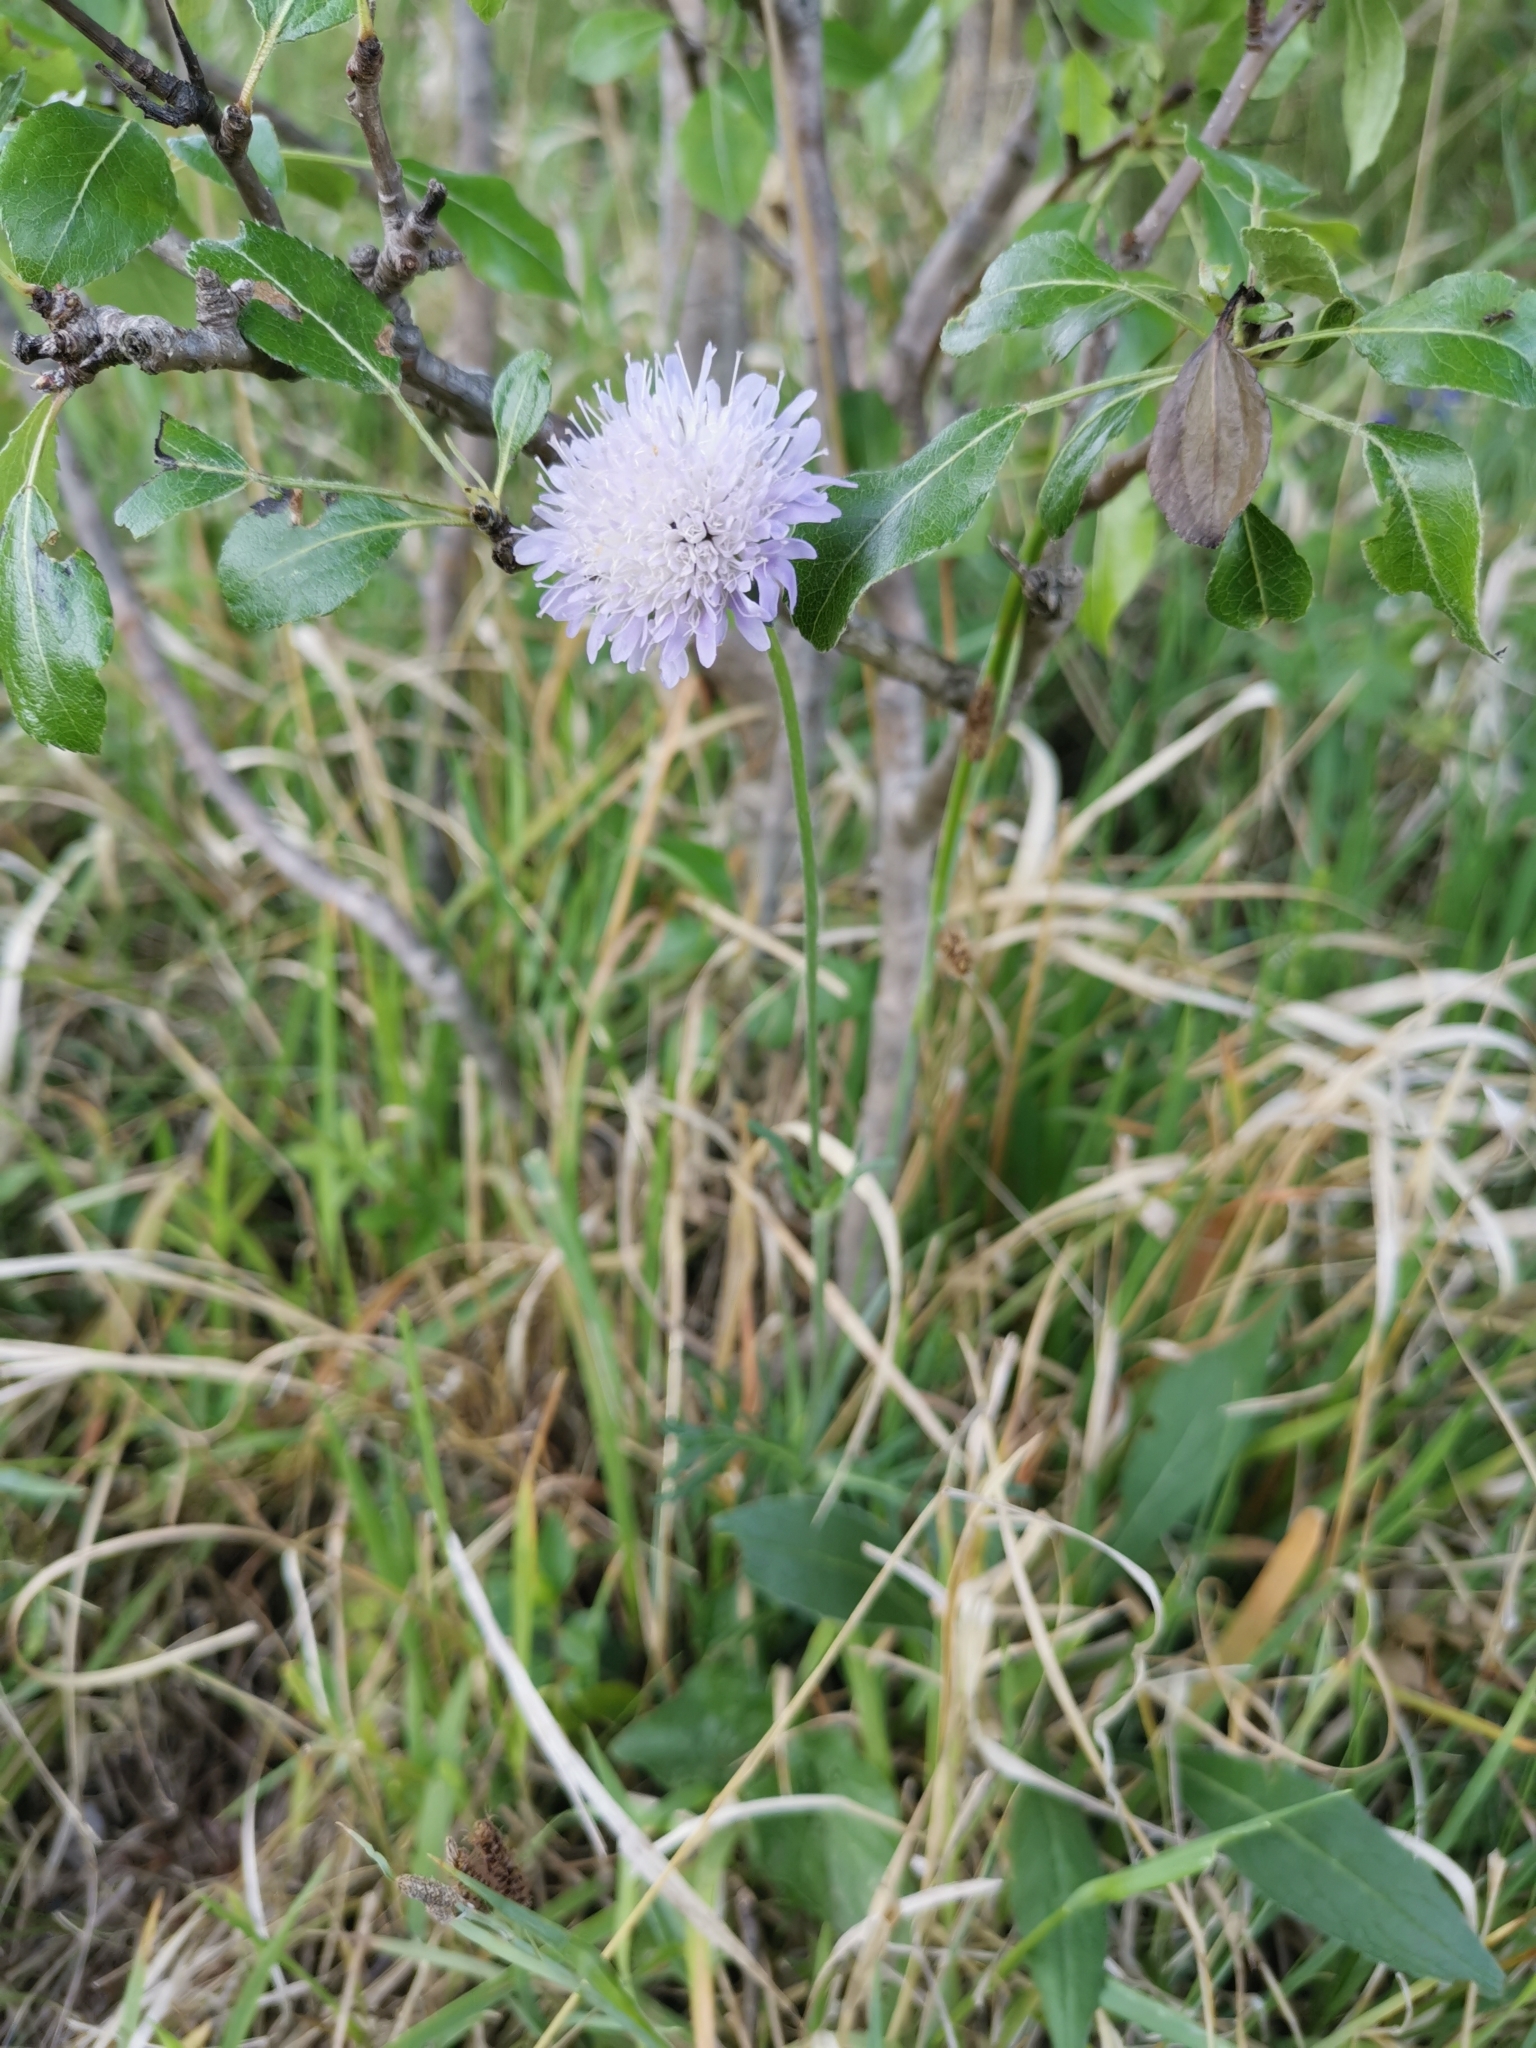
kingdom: Plantae
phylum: Tracheophyta
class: Magnoliopsida
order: Dipsacales
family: Caprifoliaceae
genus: Knautia
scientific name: Knautia arvensis
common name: Field scabiosa
